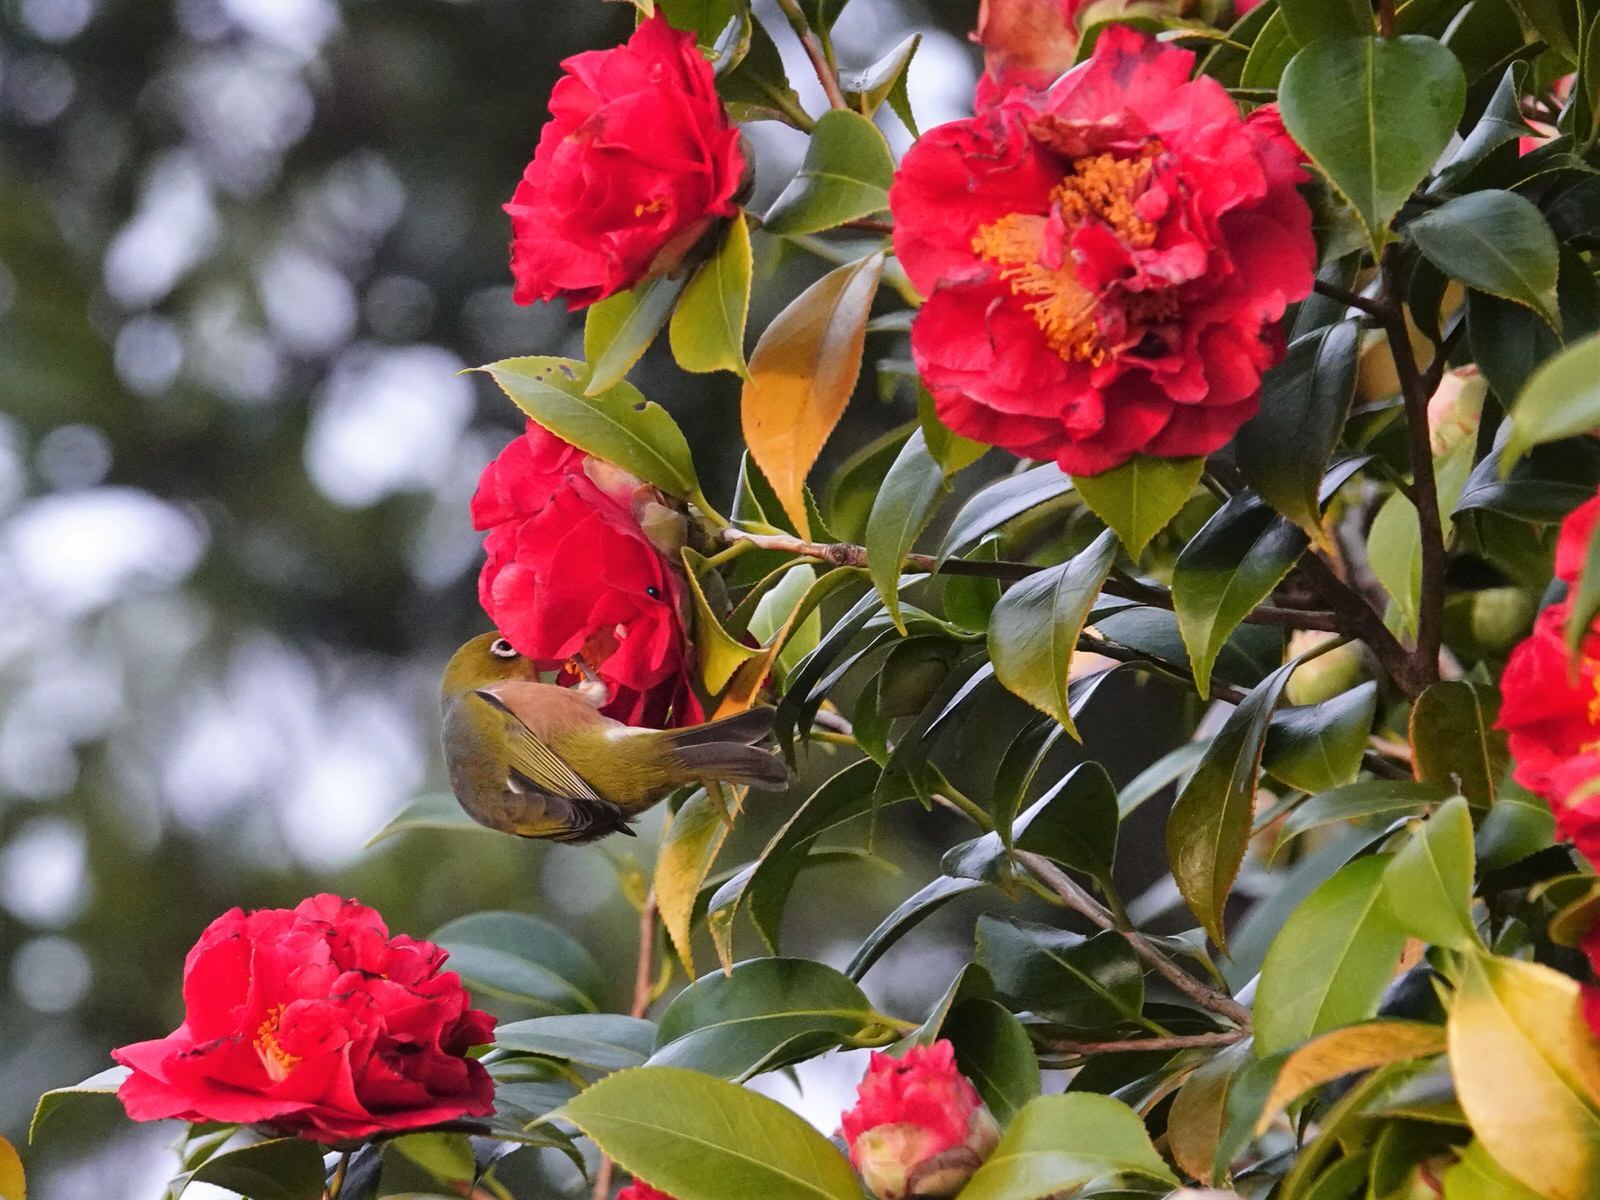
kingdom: Animalia
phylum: Chordata
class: Aves
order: Passeriformes
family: Zosteropidae
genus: Zosterops
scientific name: Zosterops lateralis
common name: Silvereye
